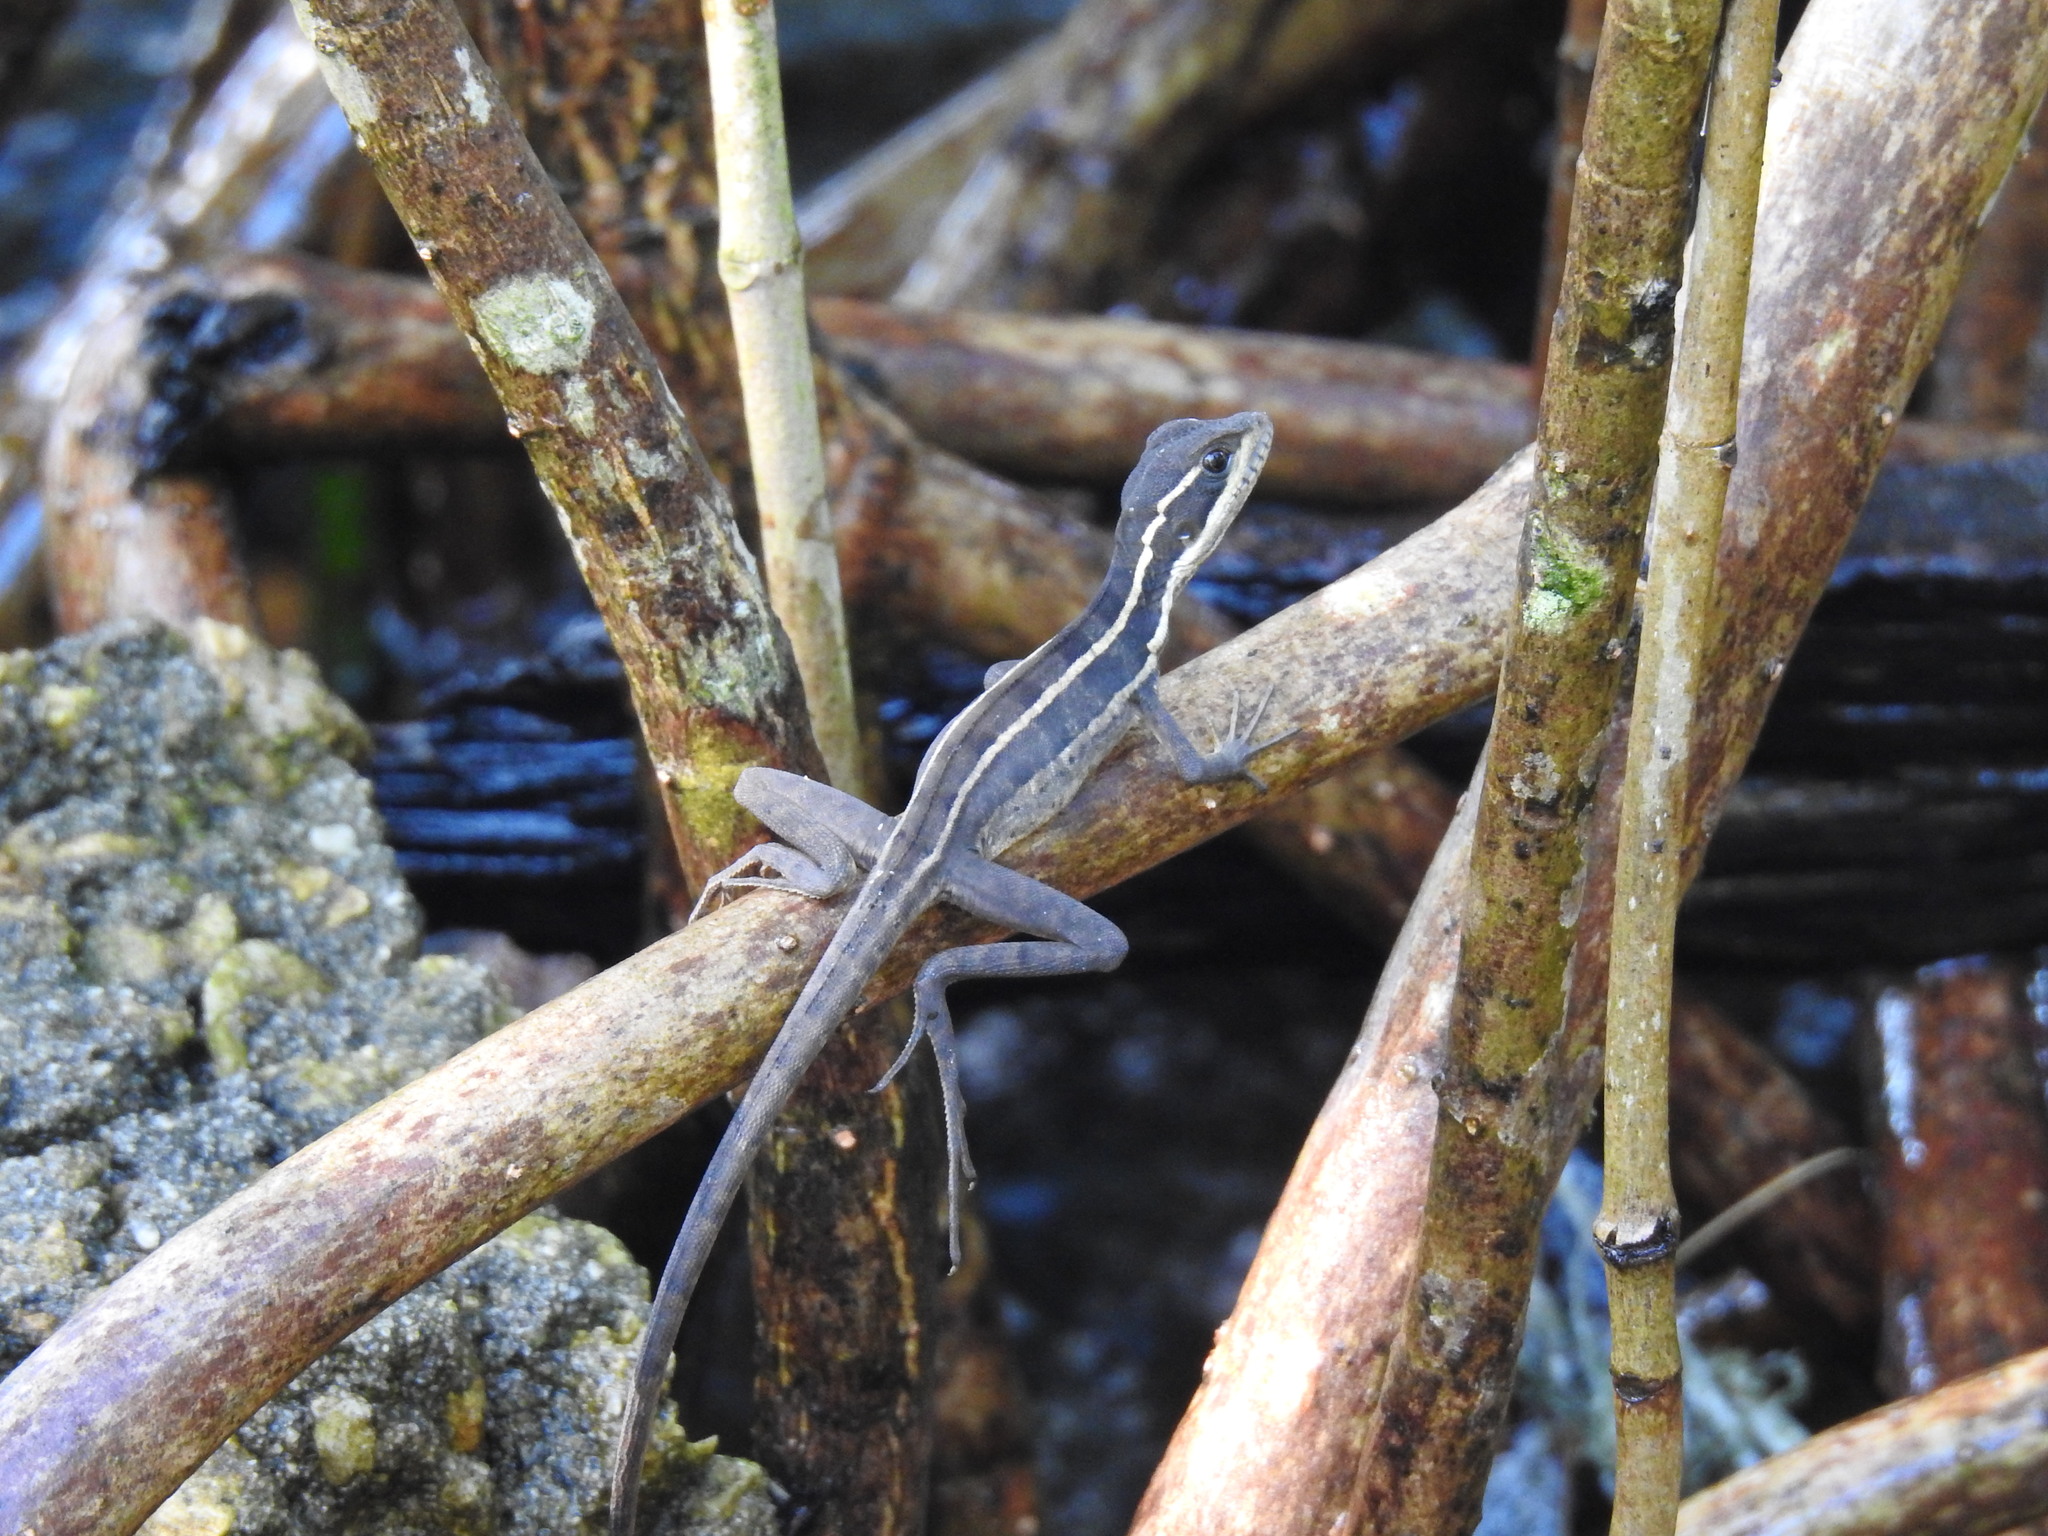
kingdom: Animalia
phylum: Chordata
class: Squamata
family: Corytophanidae
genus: Basiliscus
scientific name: Basiliscus vittatus
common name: Brown basilisk
